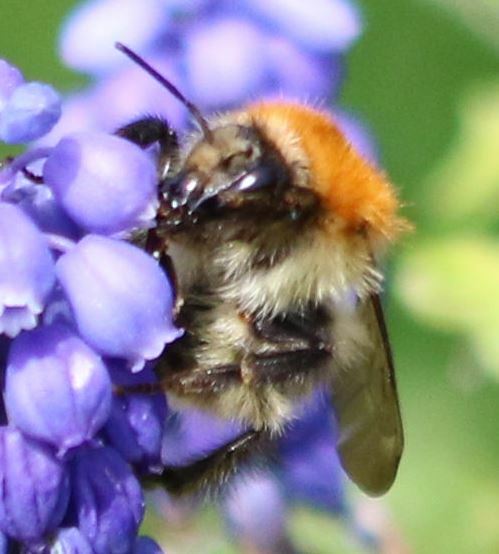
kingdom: Animalia
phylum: Arthropoda
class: Insecta
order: Hymenoptera
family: Apidae
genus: Bombus
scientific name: Bombus pascuorum
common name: Common carder bee
